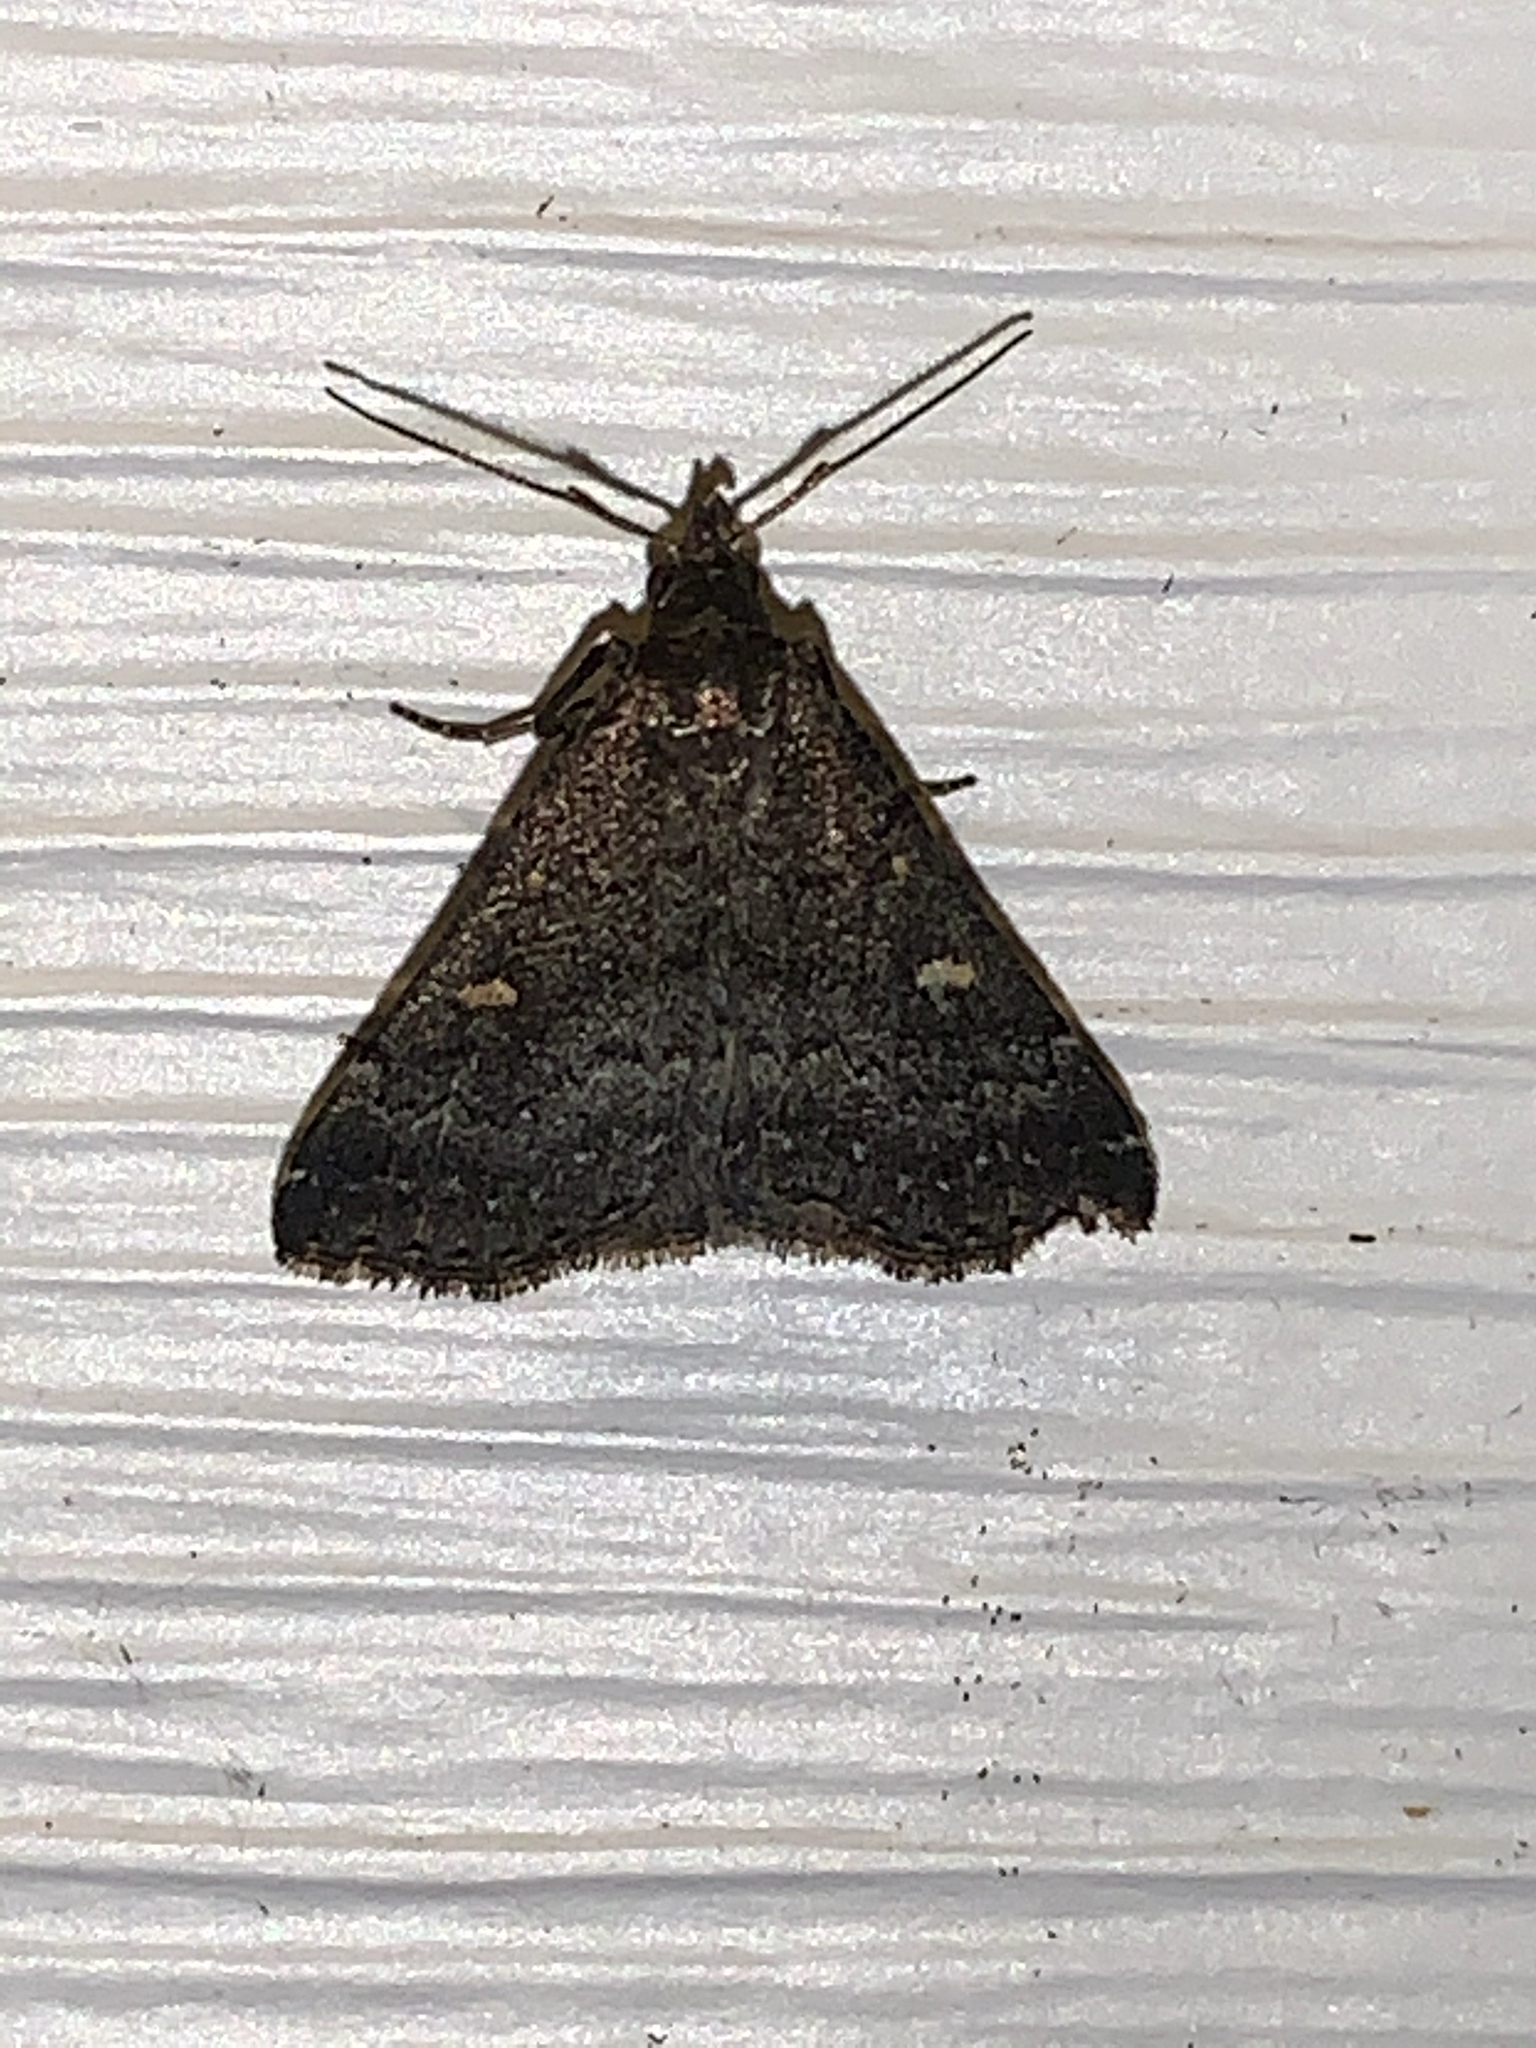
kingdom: Animalia
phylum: Arthropoda
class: Insecta
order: Lepidoptera
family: Erebidae
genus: Tetanolita
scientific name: Tetanolita mynesalis
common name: Smoky tetanolita moth
